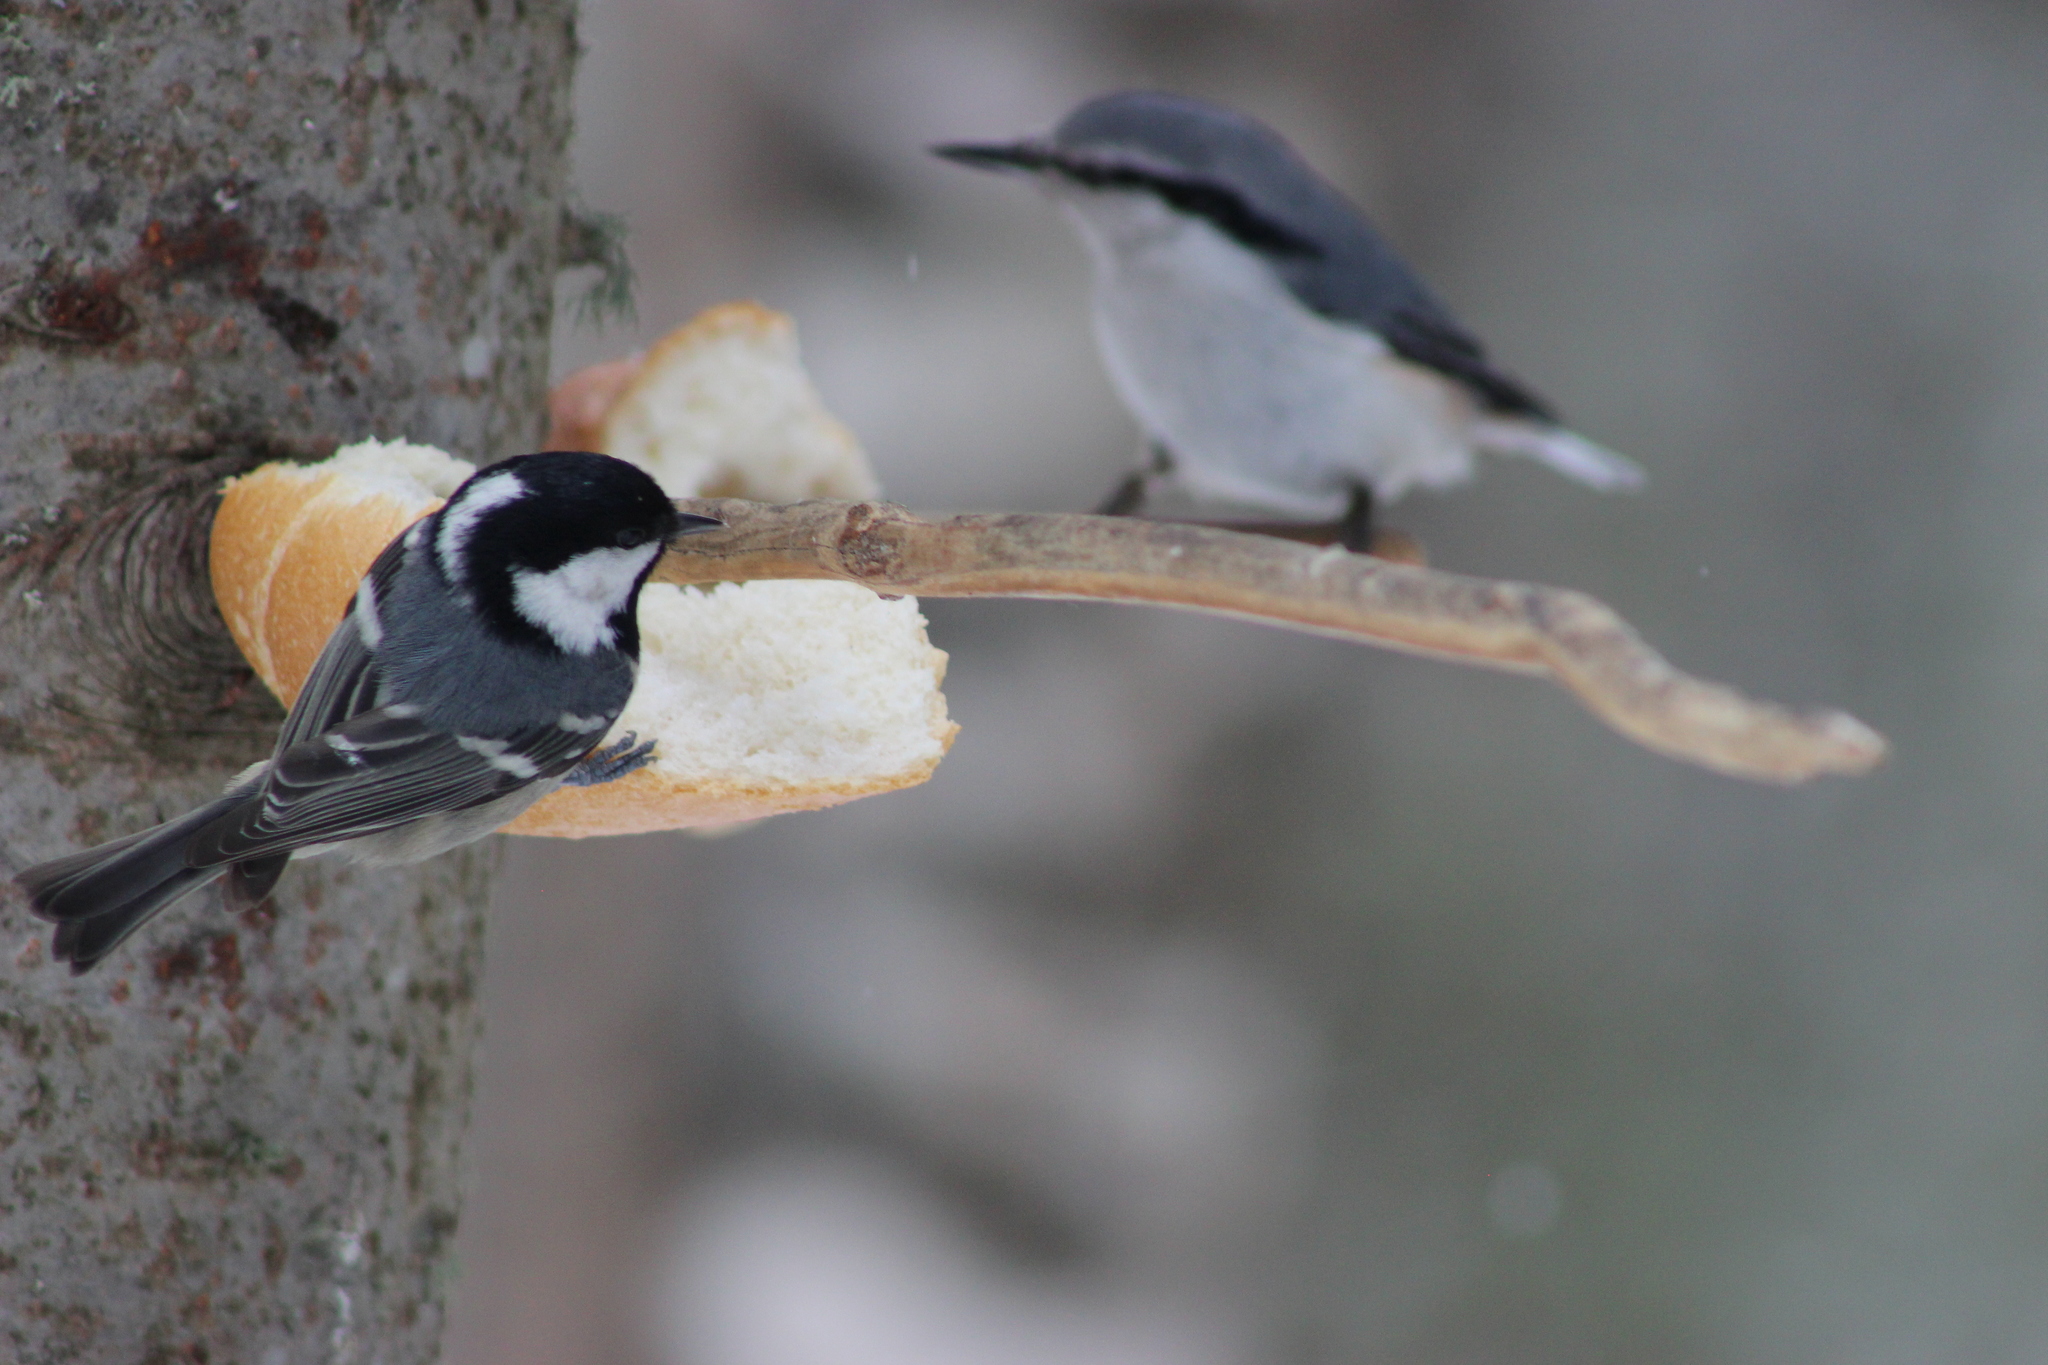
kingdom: Animalia
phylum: Chordata
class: Aves
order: Passeriformes
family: Paridae
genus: Periparus
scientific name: Periparus ater
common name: Coal tit
